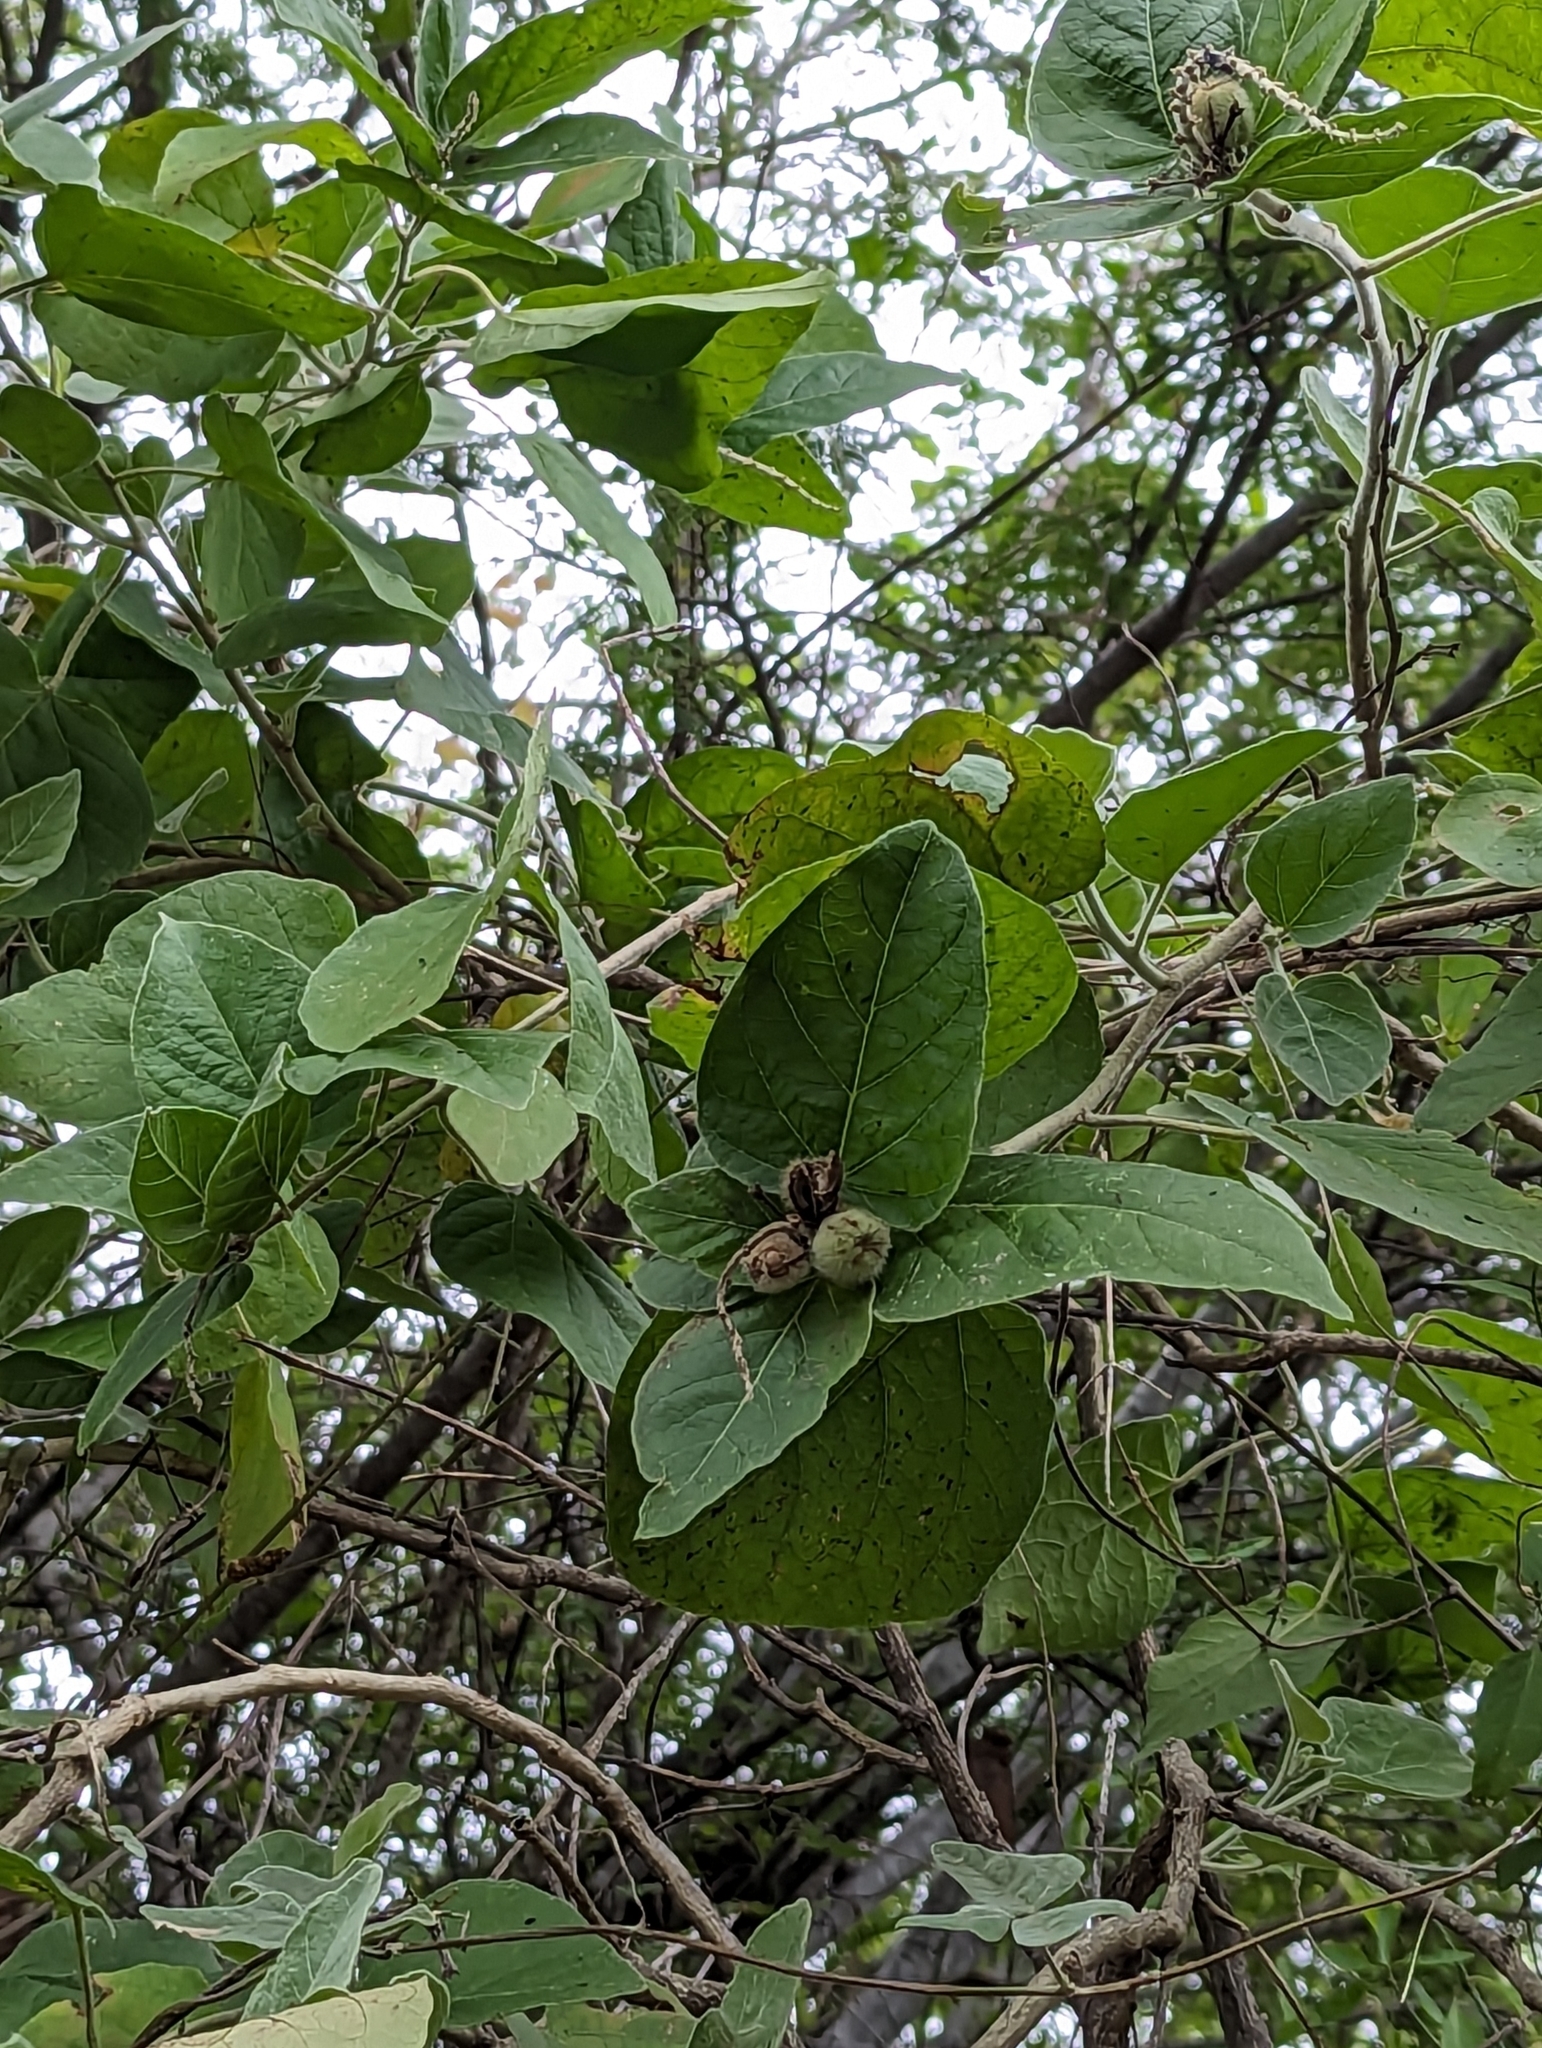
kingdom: Plantae
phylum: Tracheophyta
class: Magnoliopsida
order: Malpighiales
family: Euphorbiaceae
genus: Croton
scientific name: Croton magdalenae
